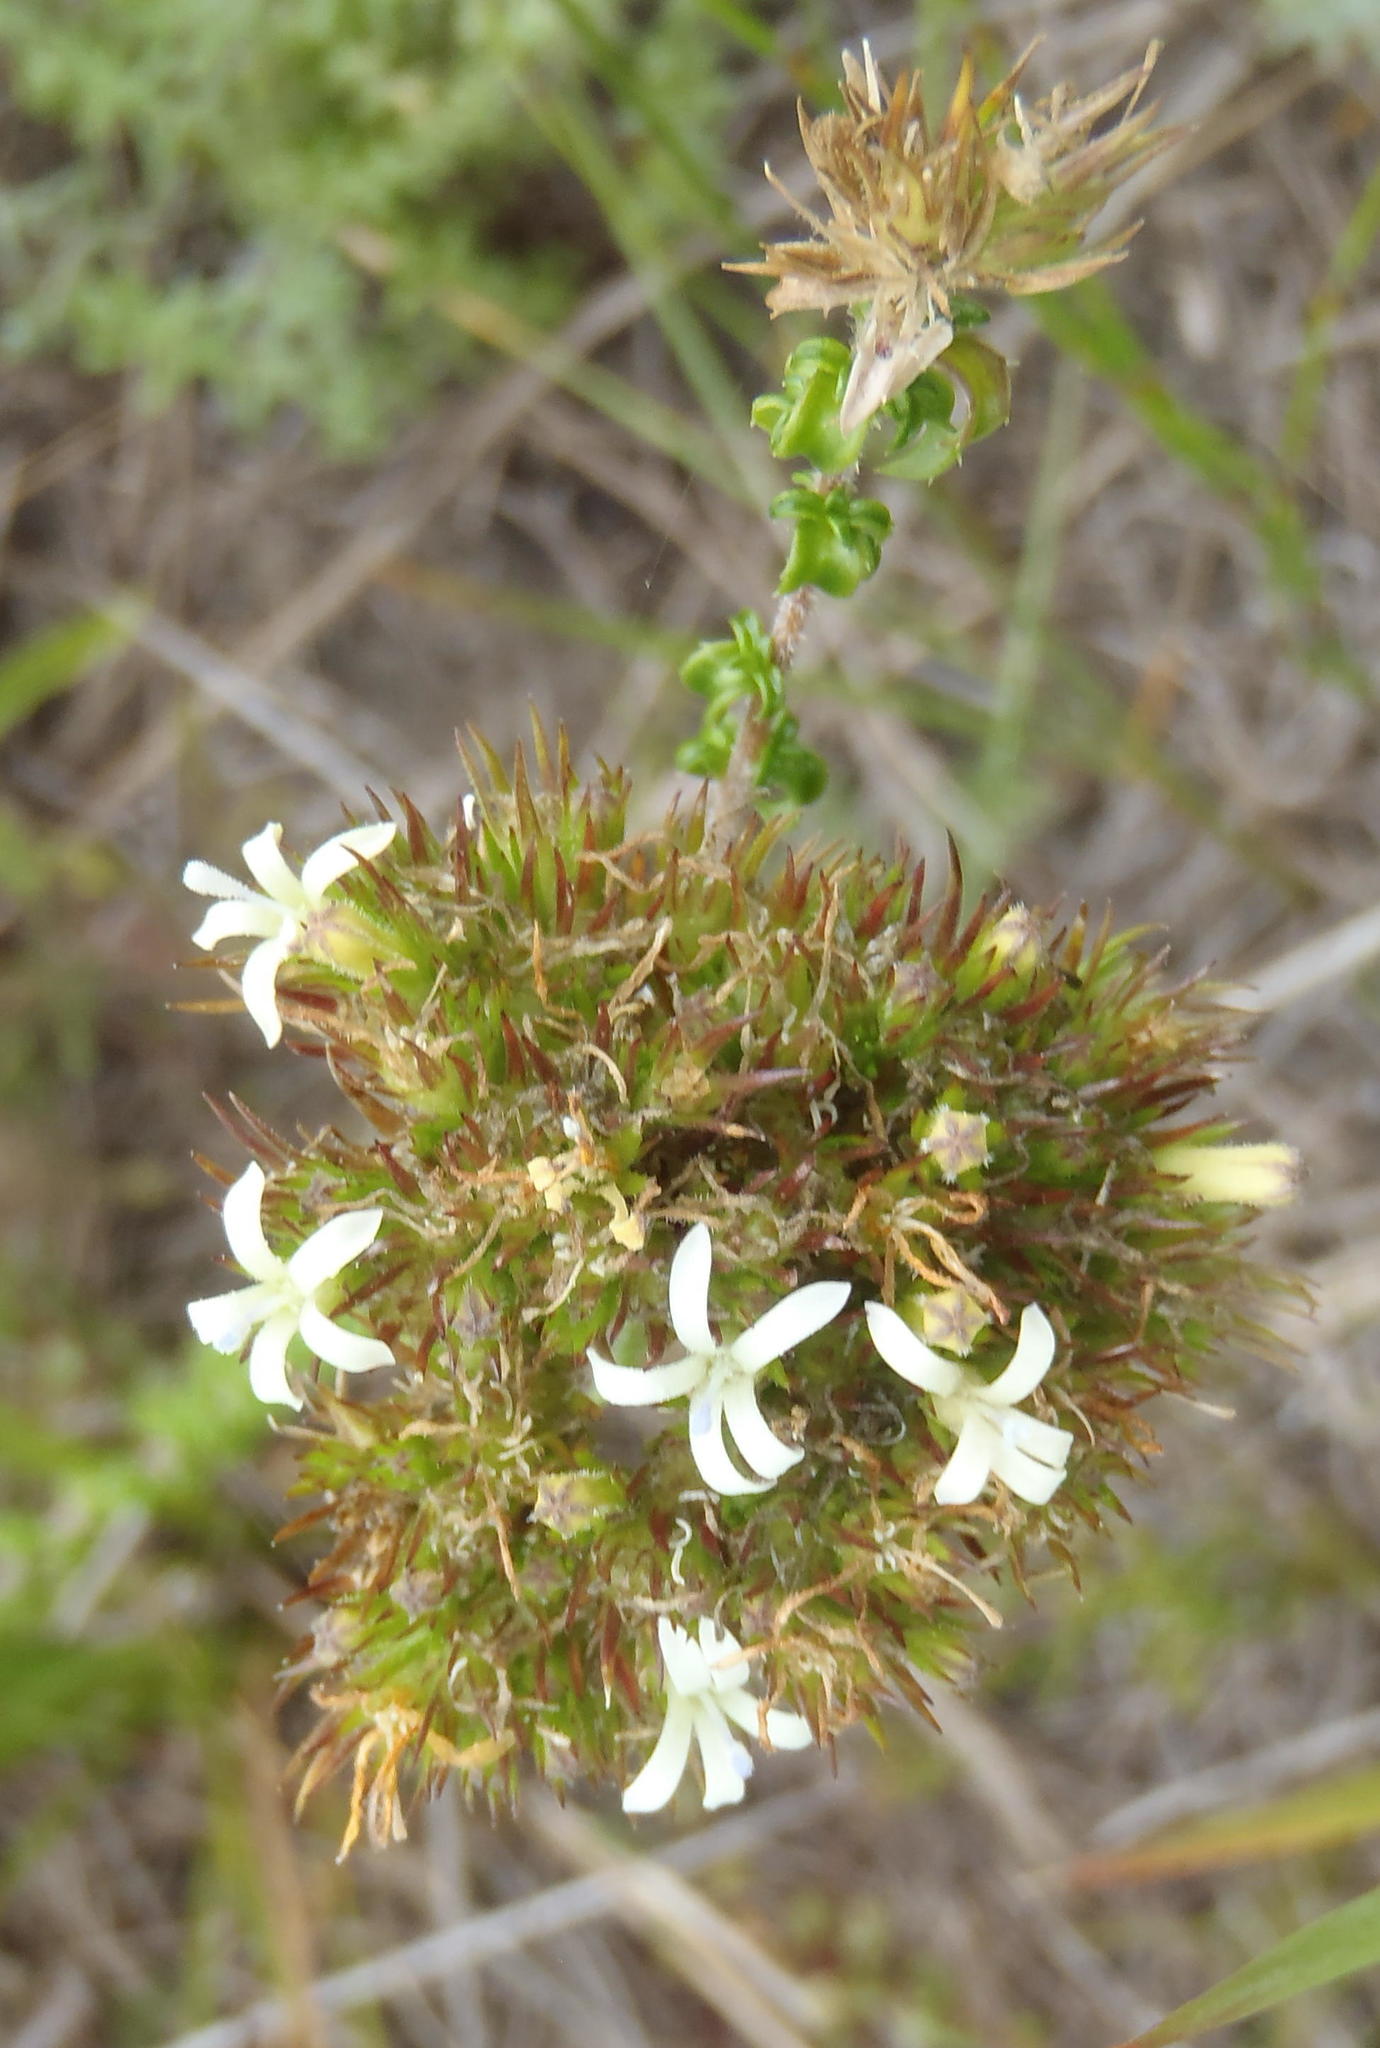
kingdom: Plantae
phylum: Tracheophyta
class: Magnoliopsida
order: Asterales
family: Campanulaceae
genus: Wahlenbergia
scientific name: Wahlenbergia desmantha
